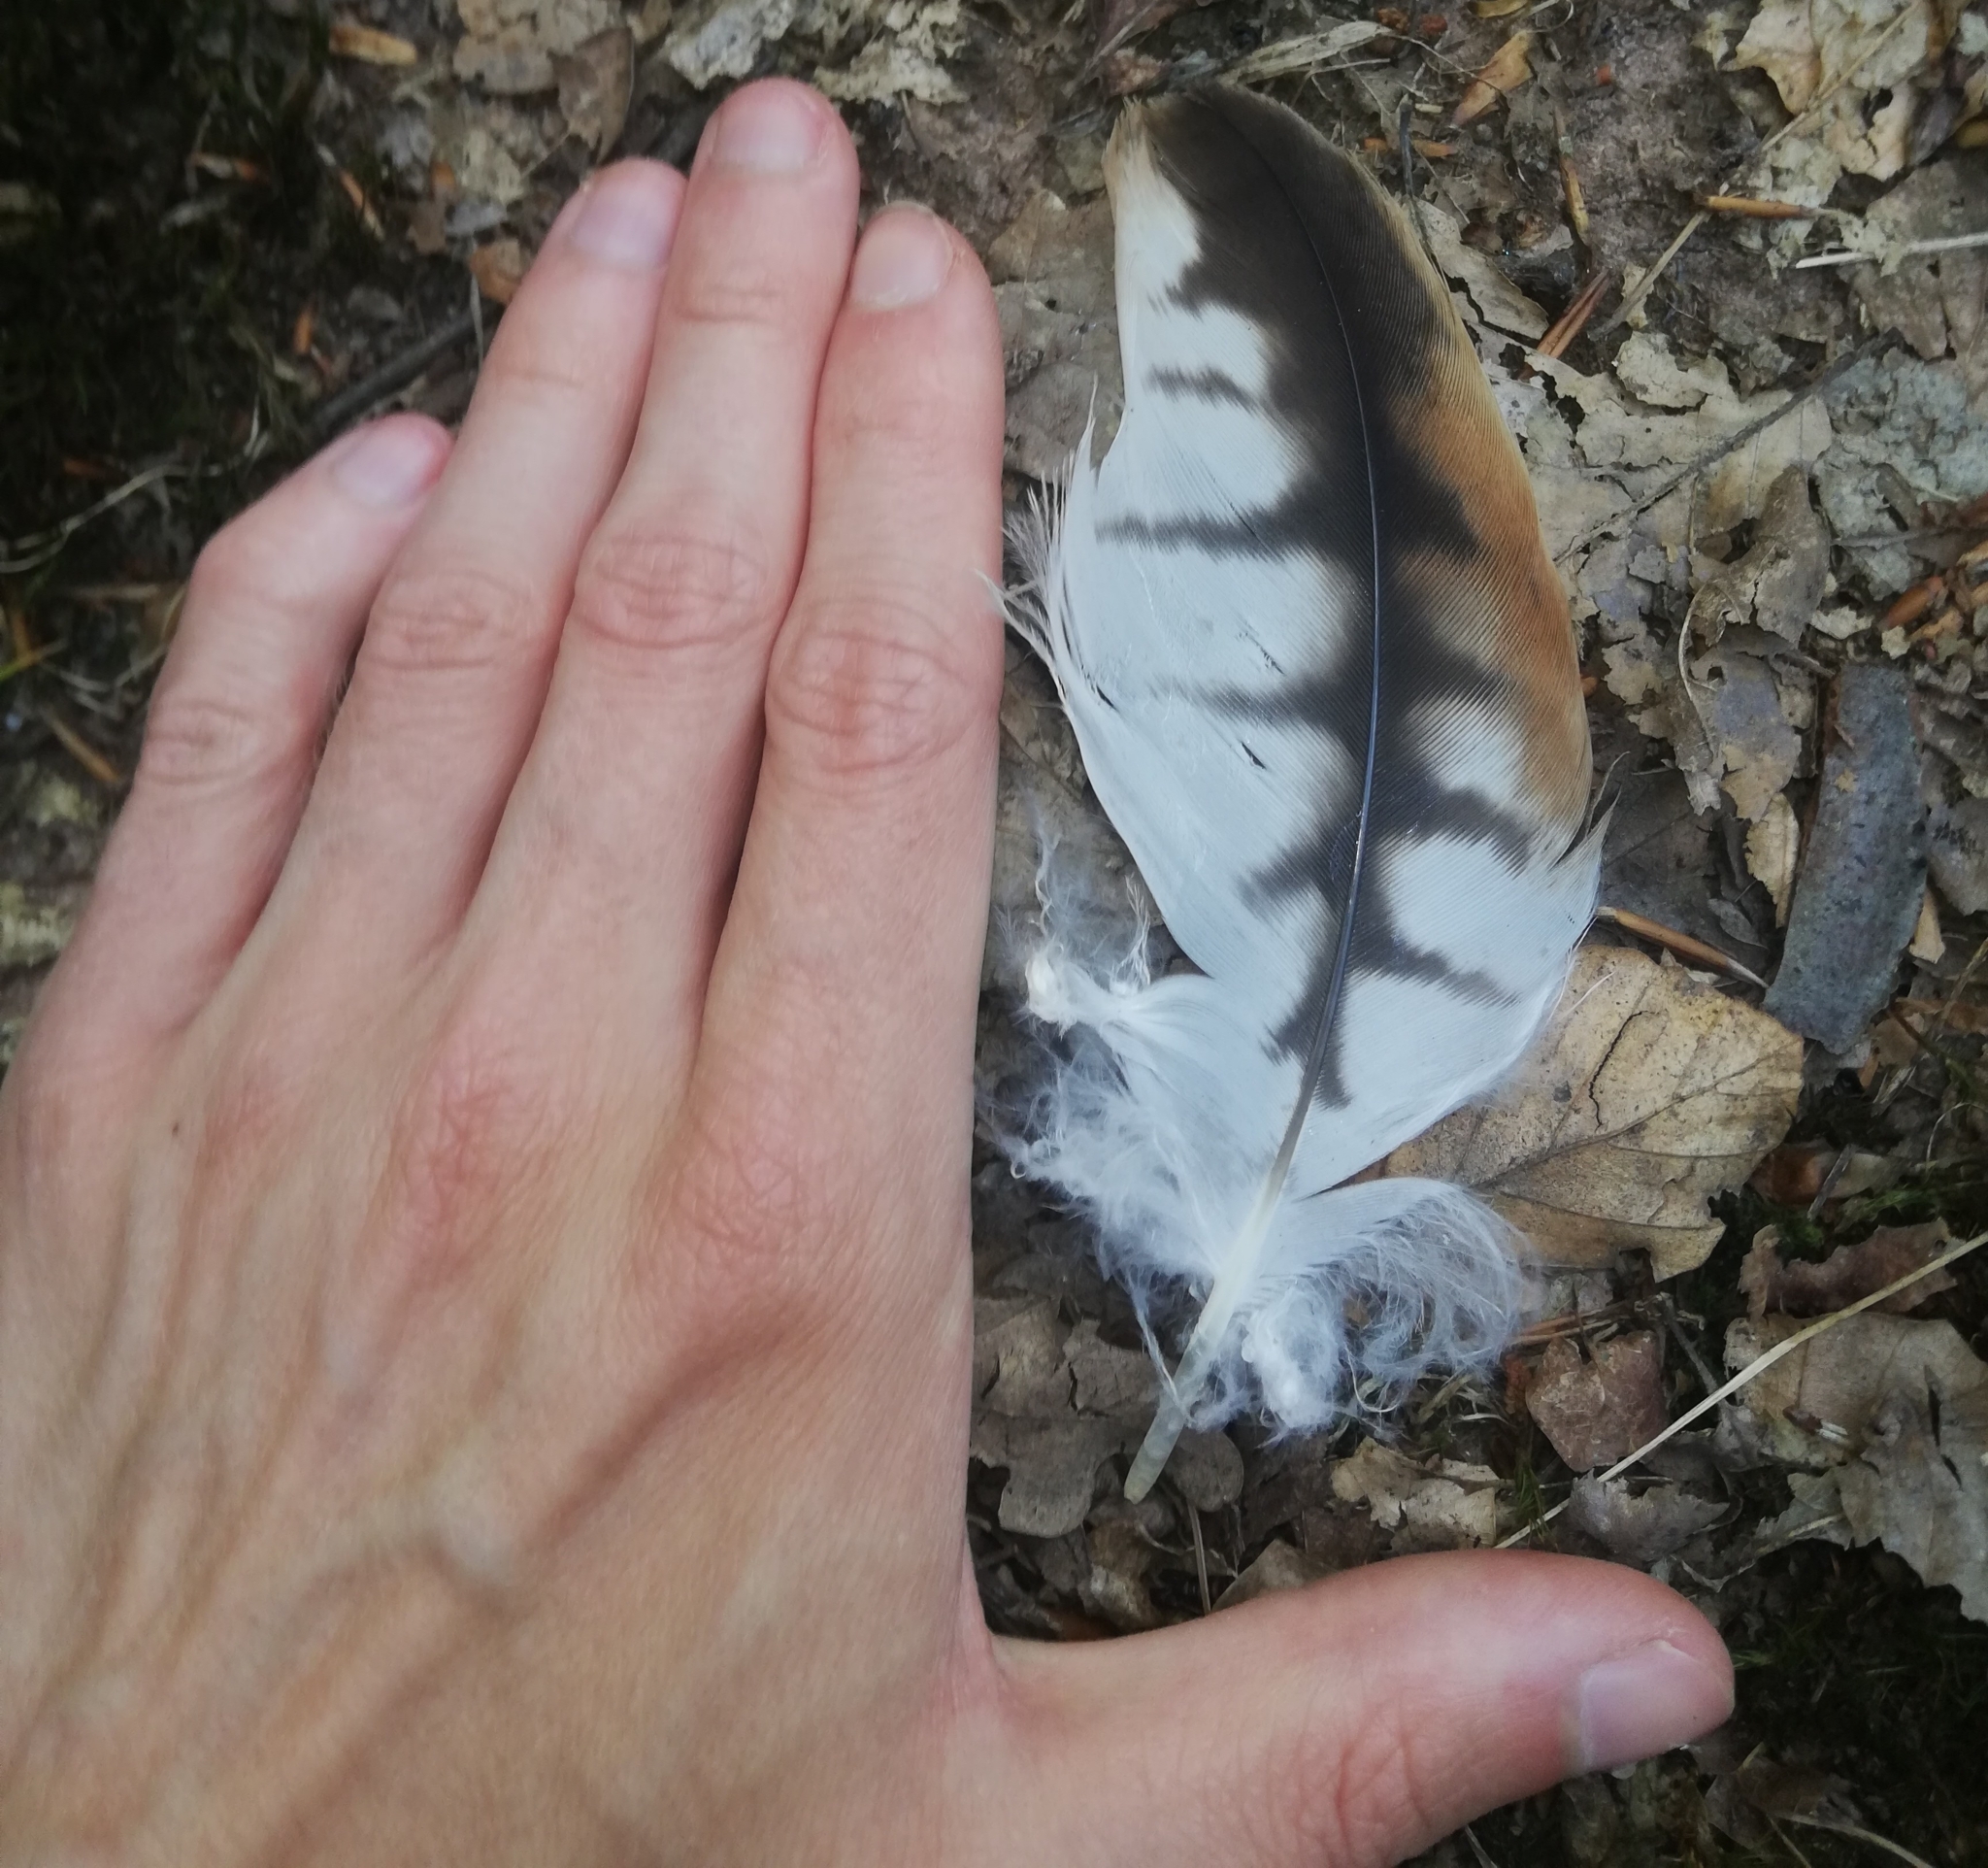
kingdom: Animalia
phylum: Chordata
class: Aves
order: Accipitriformes
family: Accipitridae
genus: Milvus
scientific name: Milvus milvus
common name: Red kite
